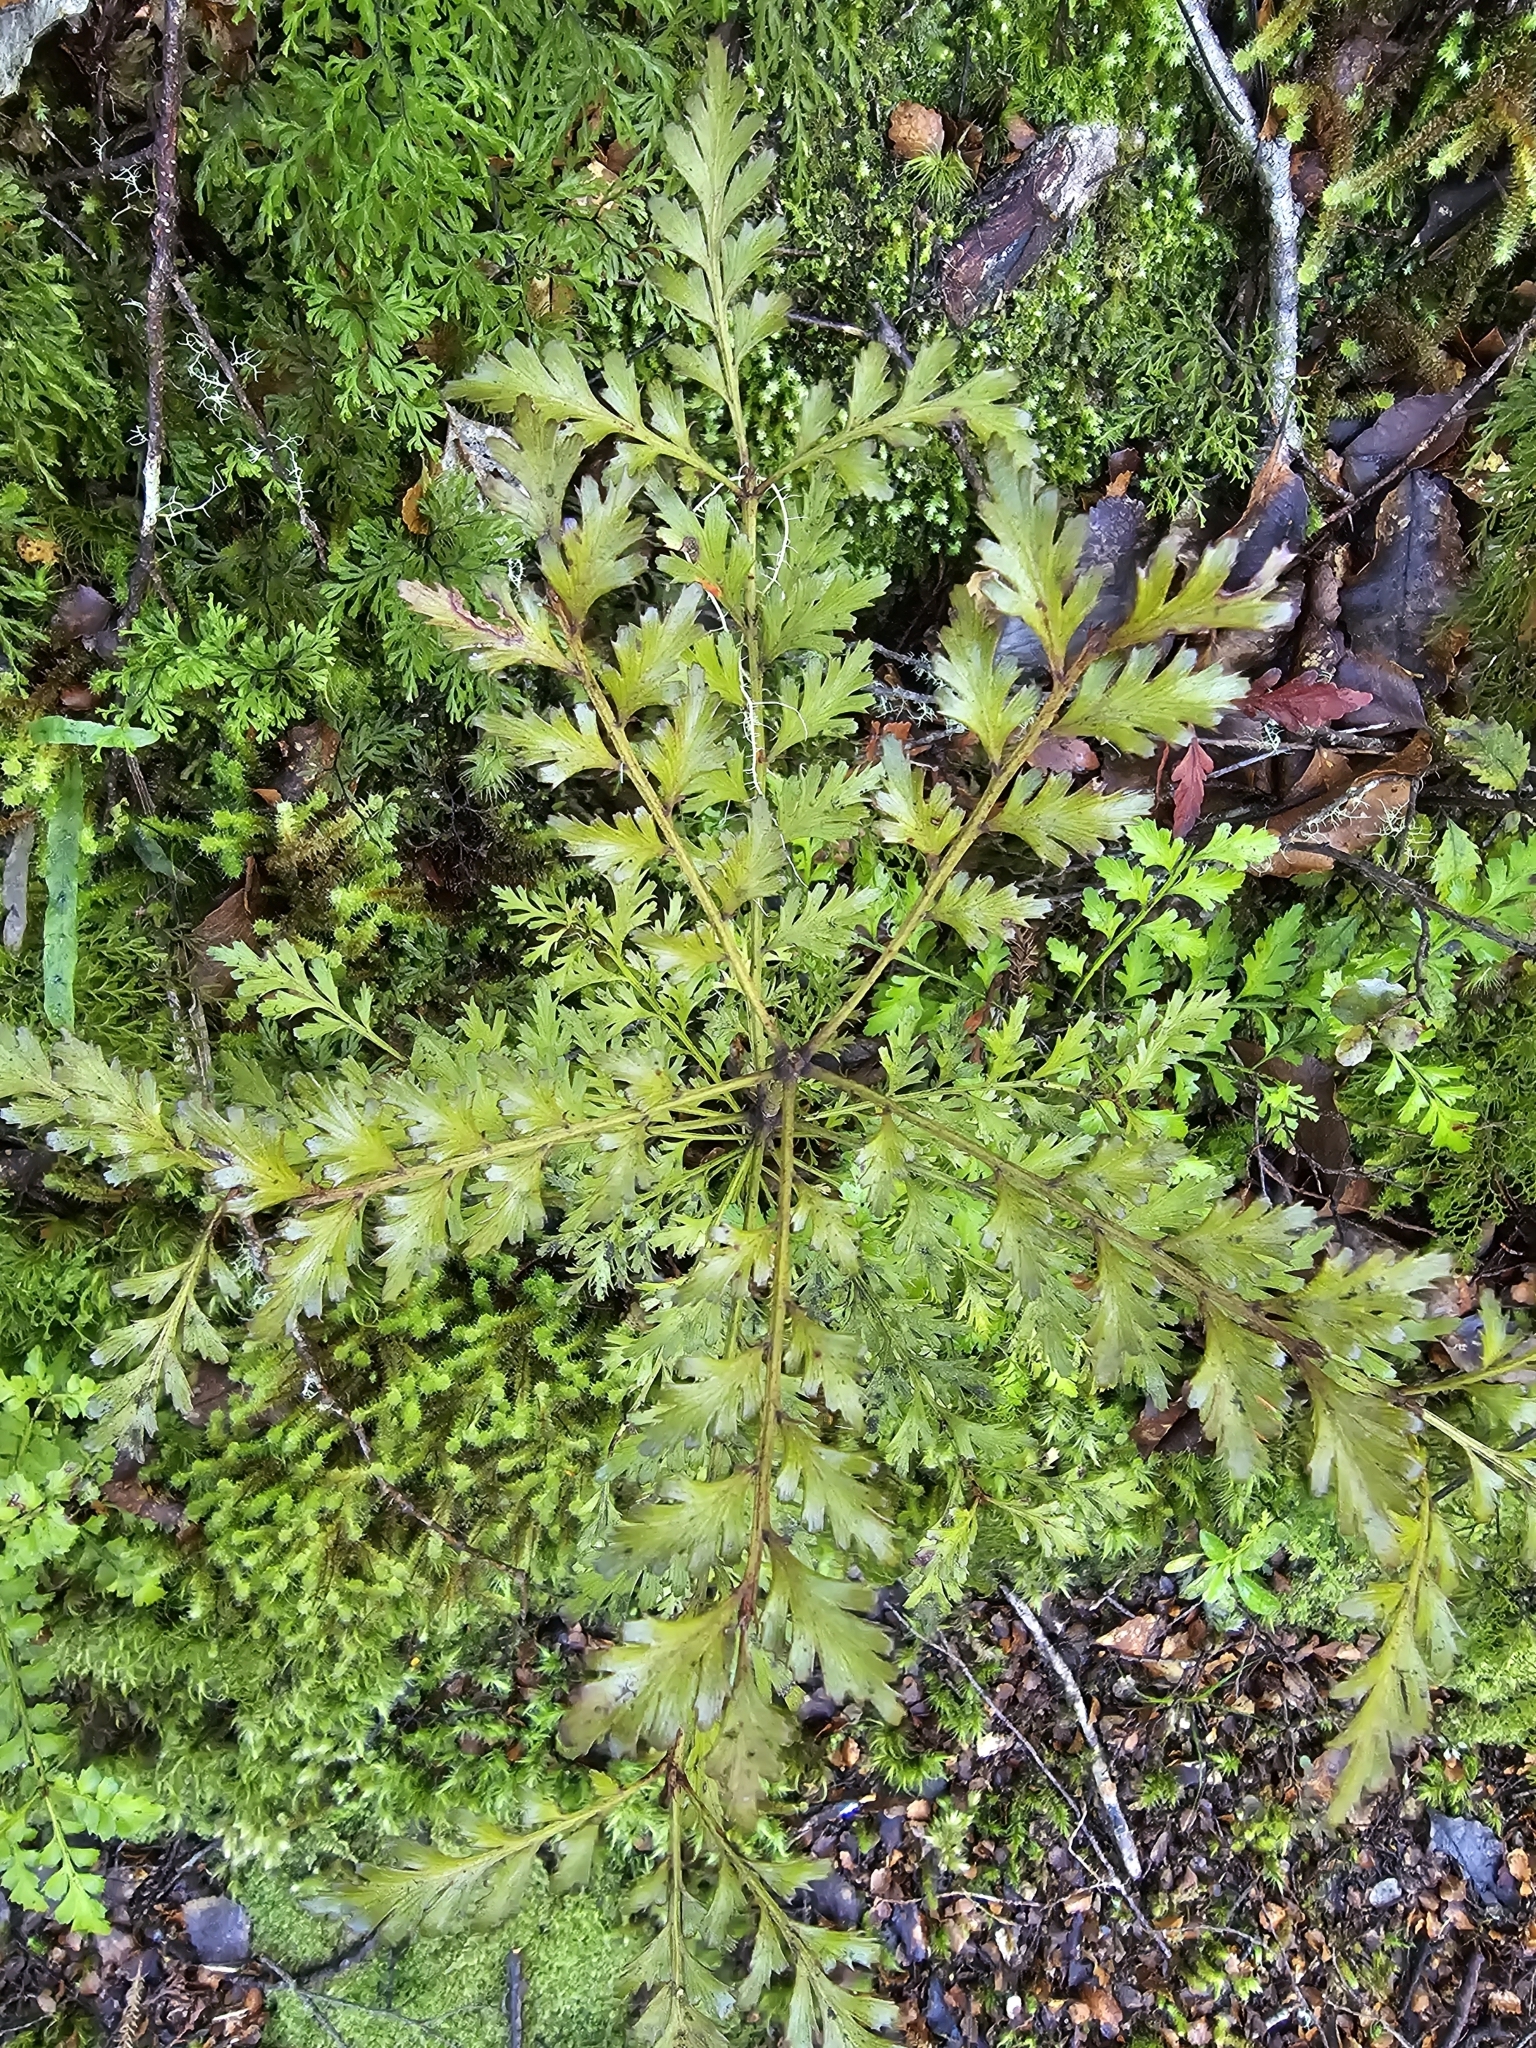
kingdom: Plantae
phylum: Tracheophyta
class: Pinopsida
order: Pinales
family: Phyllocladaceae
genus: Phyllocladus
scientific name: Phyllocladus trichomanoides
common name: Celery pine
